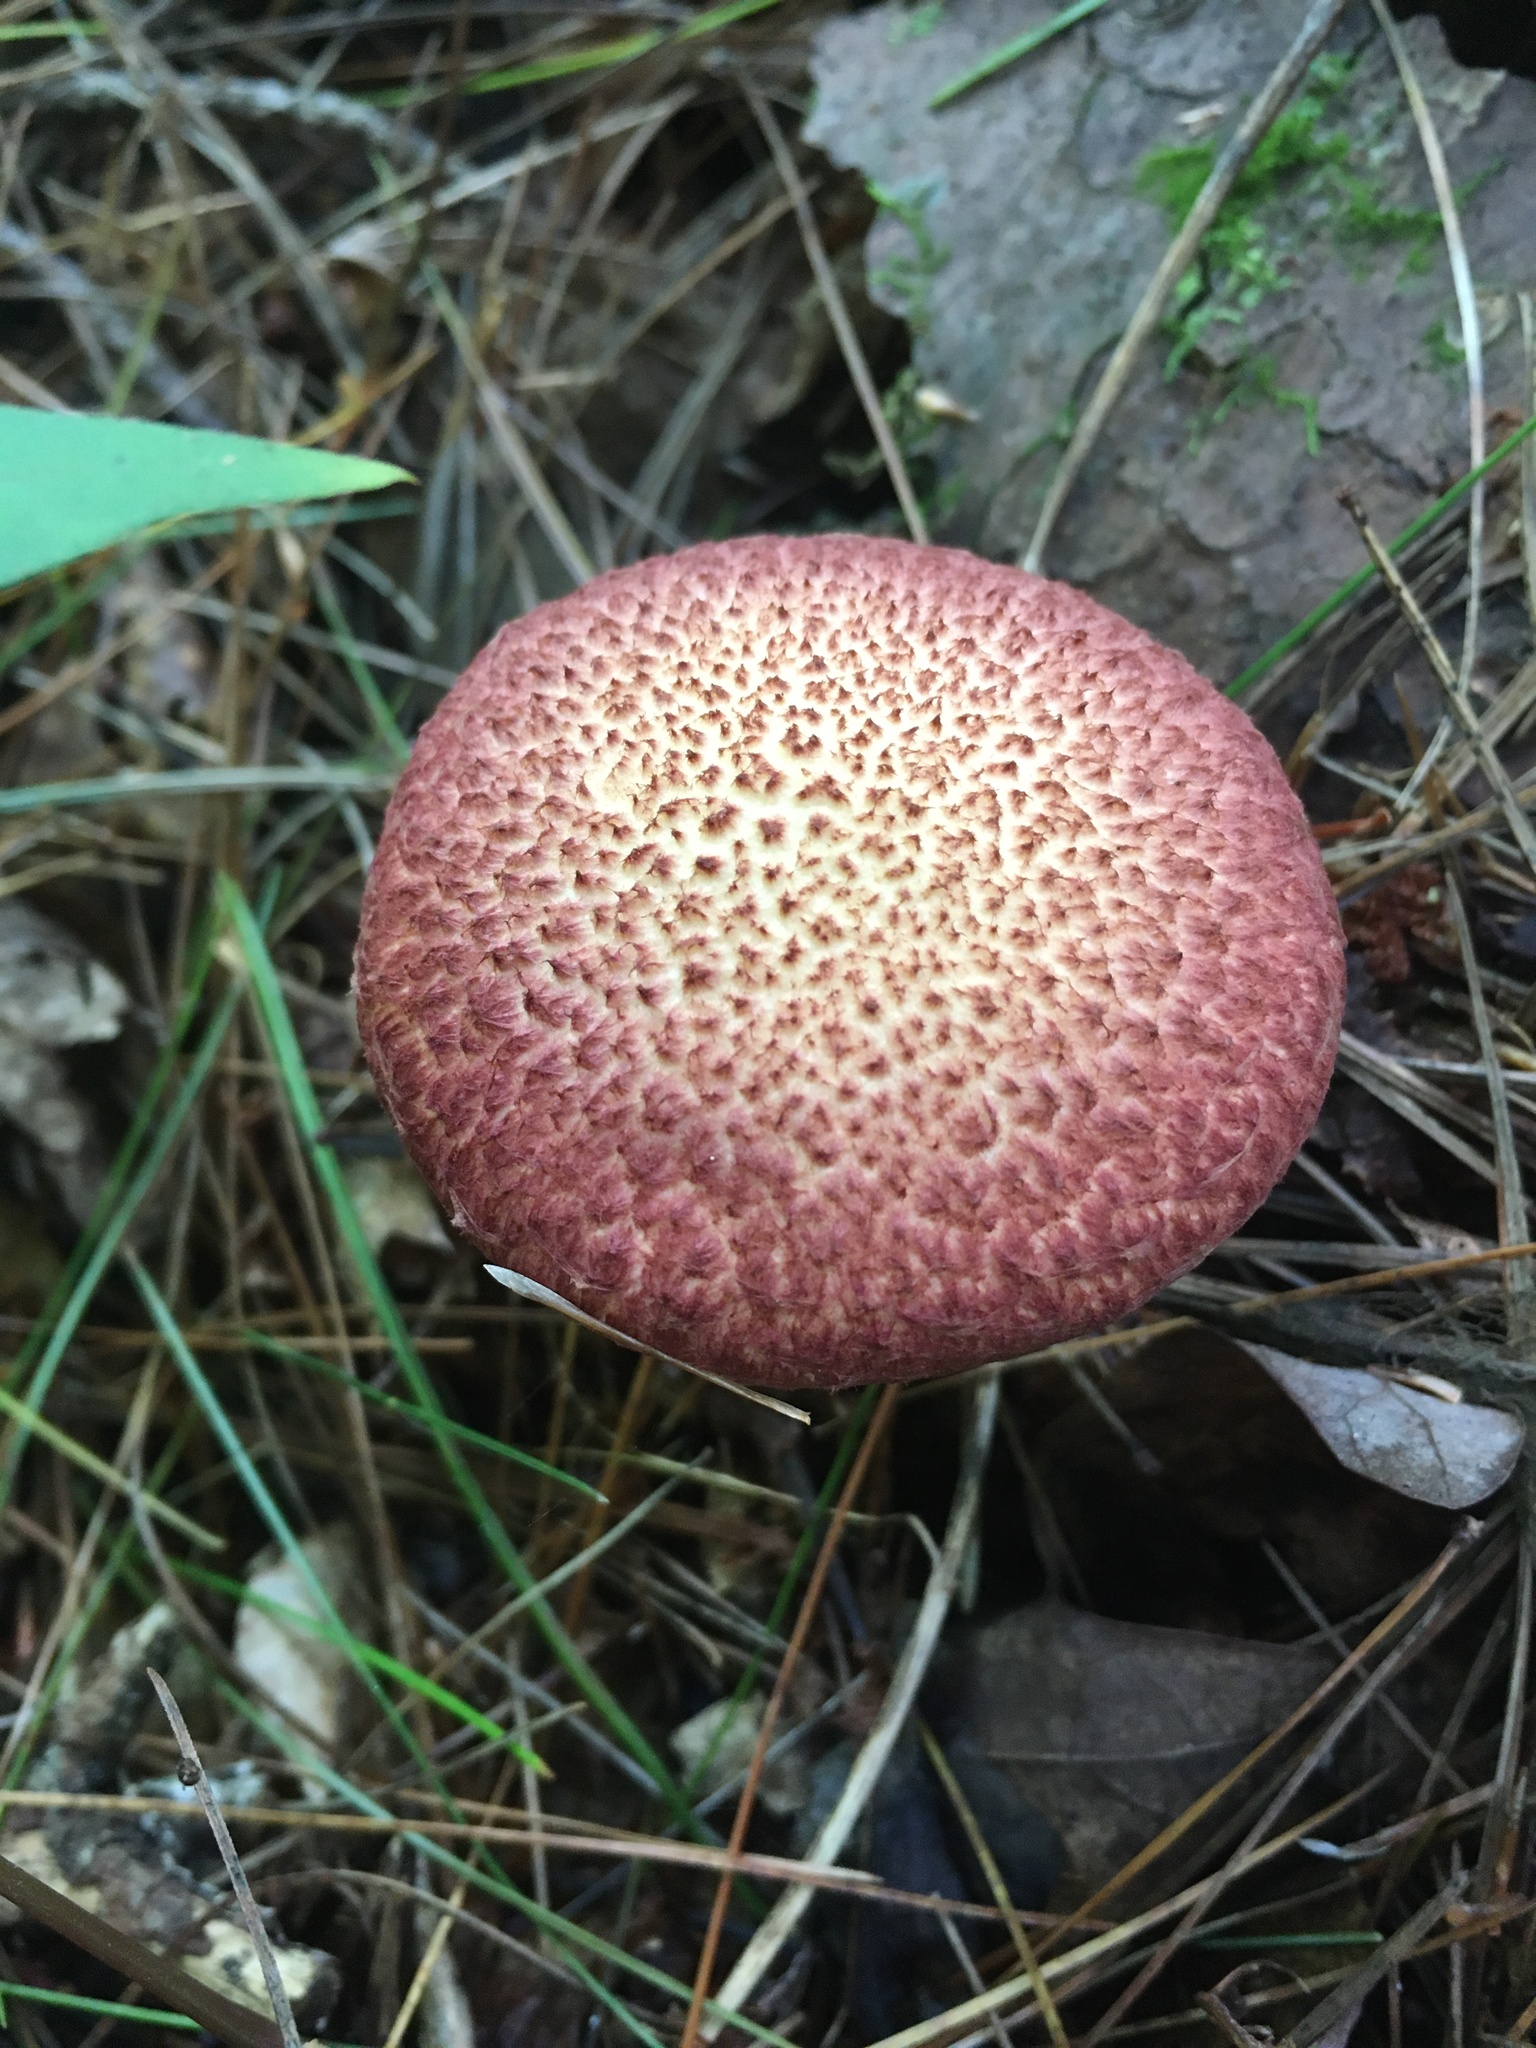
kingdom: Fungi
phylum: Basidiomycota
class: Agaricomycetes
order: Boletales
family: Suillaceae
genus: Suillus
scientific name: Suillus spraguei
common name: Painted suillus
